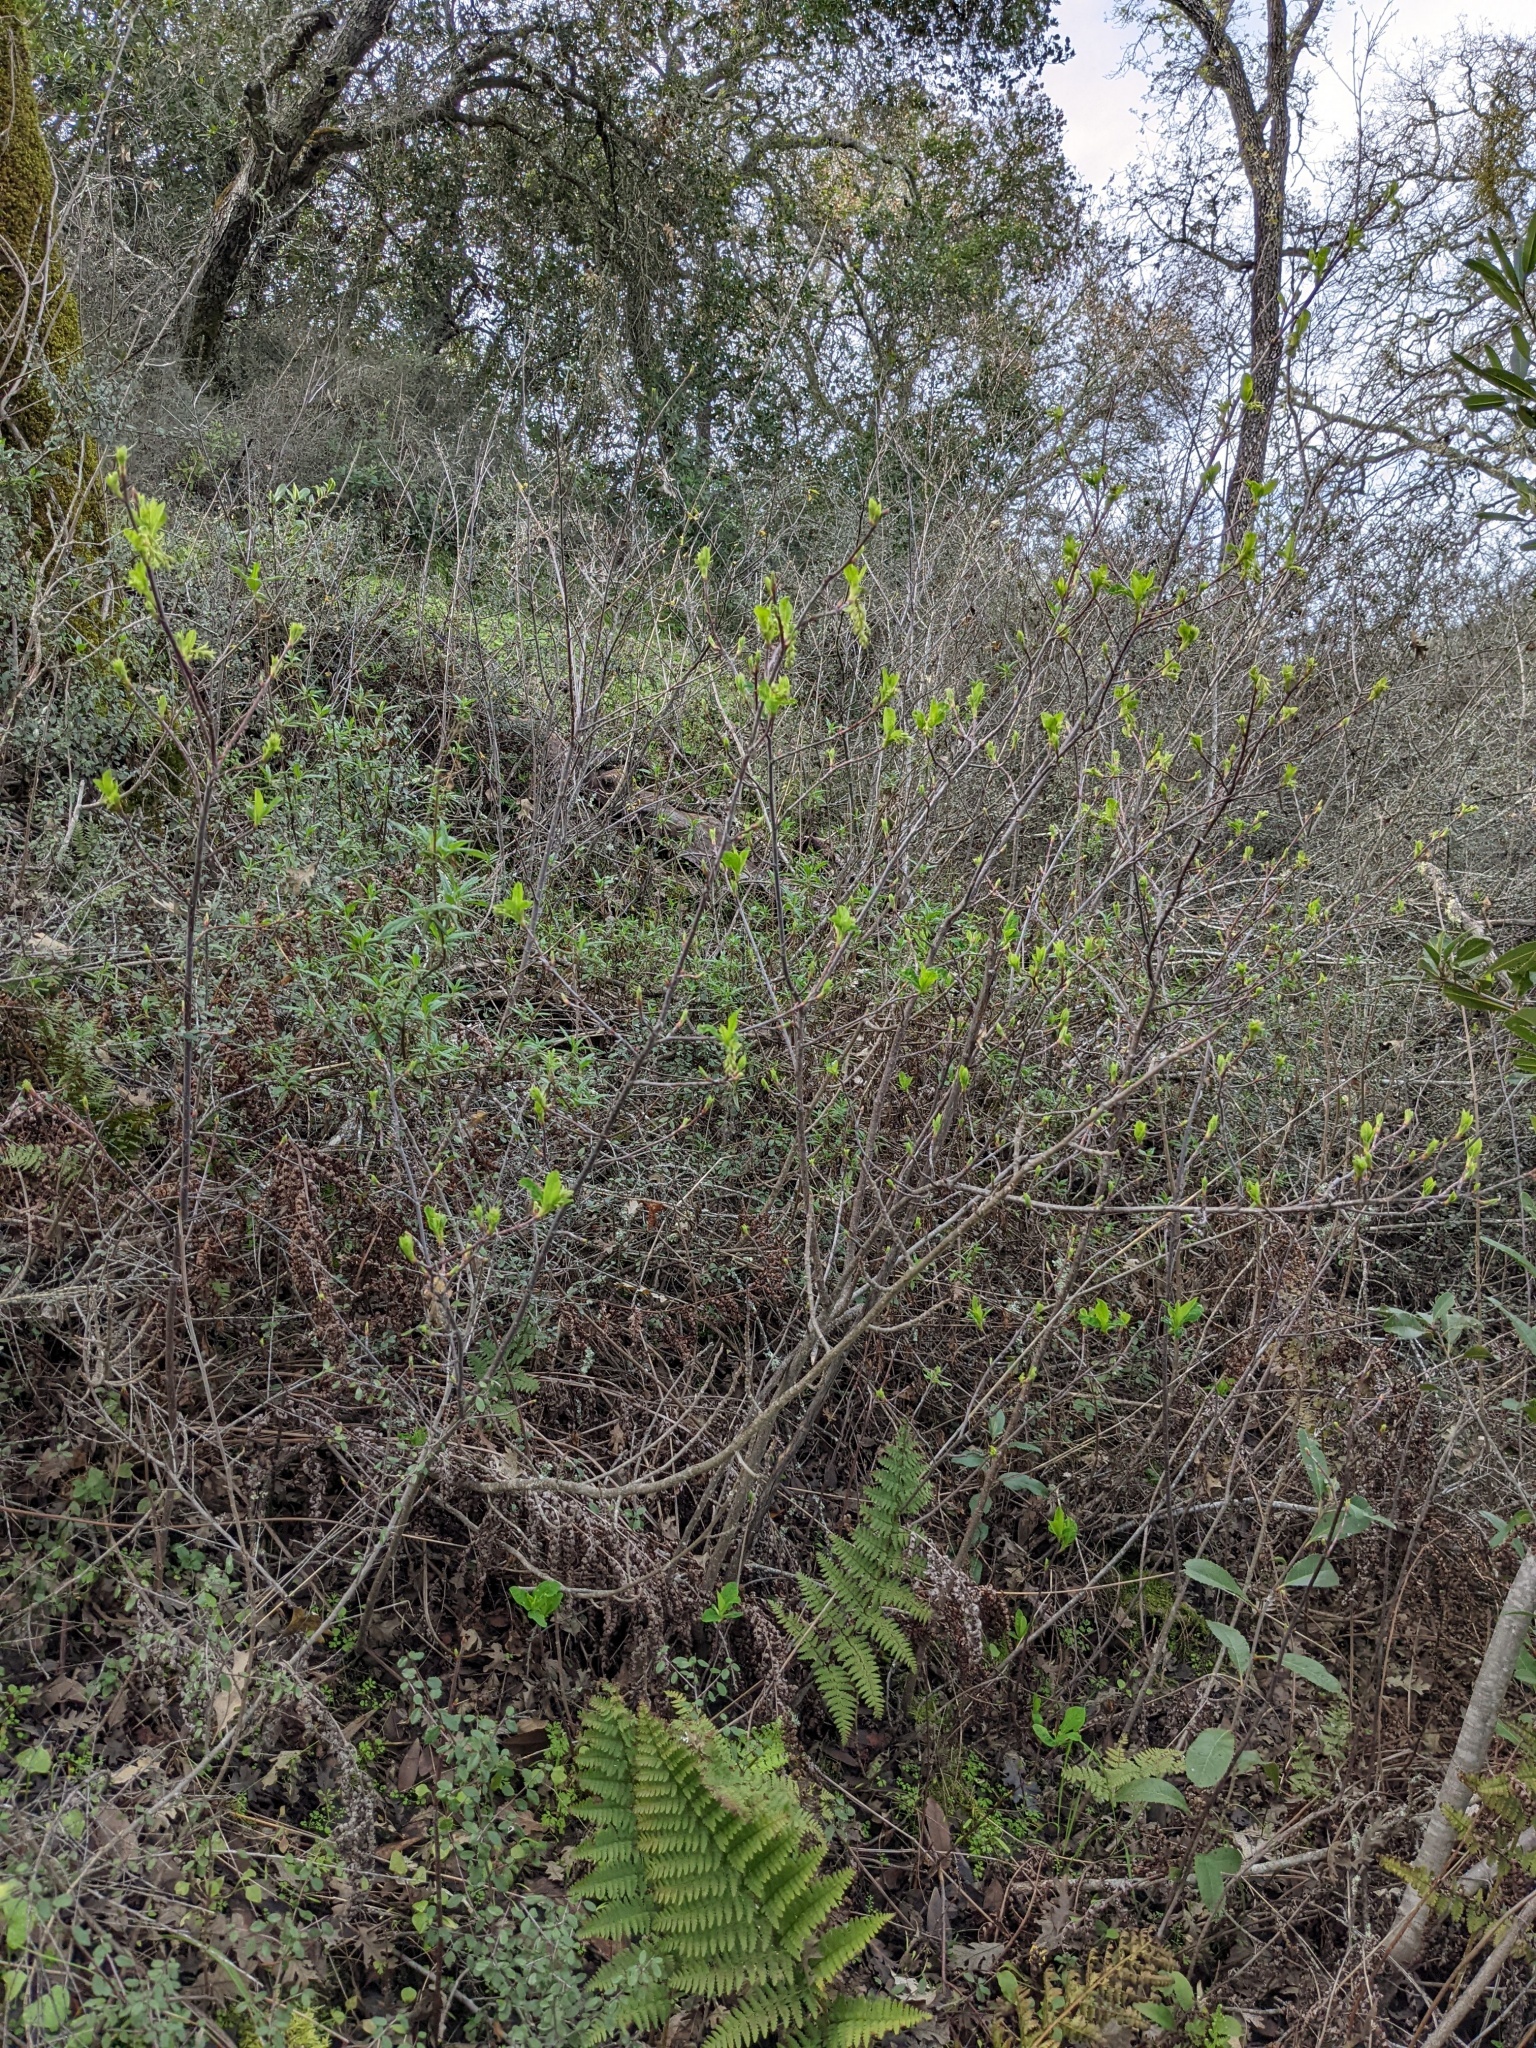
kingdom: Plantae
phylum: Tracheophyta
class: Magnoliopsida
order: Rosales
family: Rosaceae
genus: Oemleria
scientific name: Oemleria cerasiformis
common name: Osoberry
